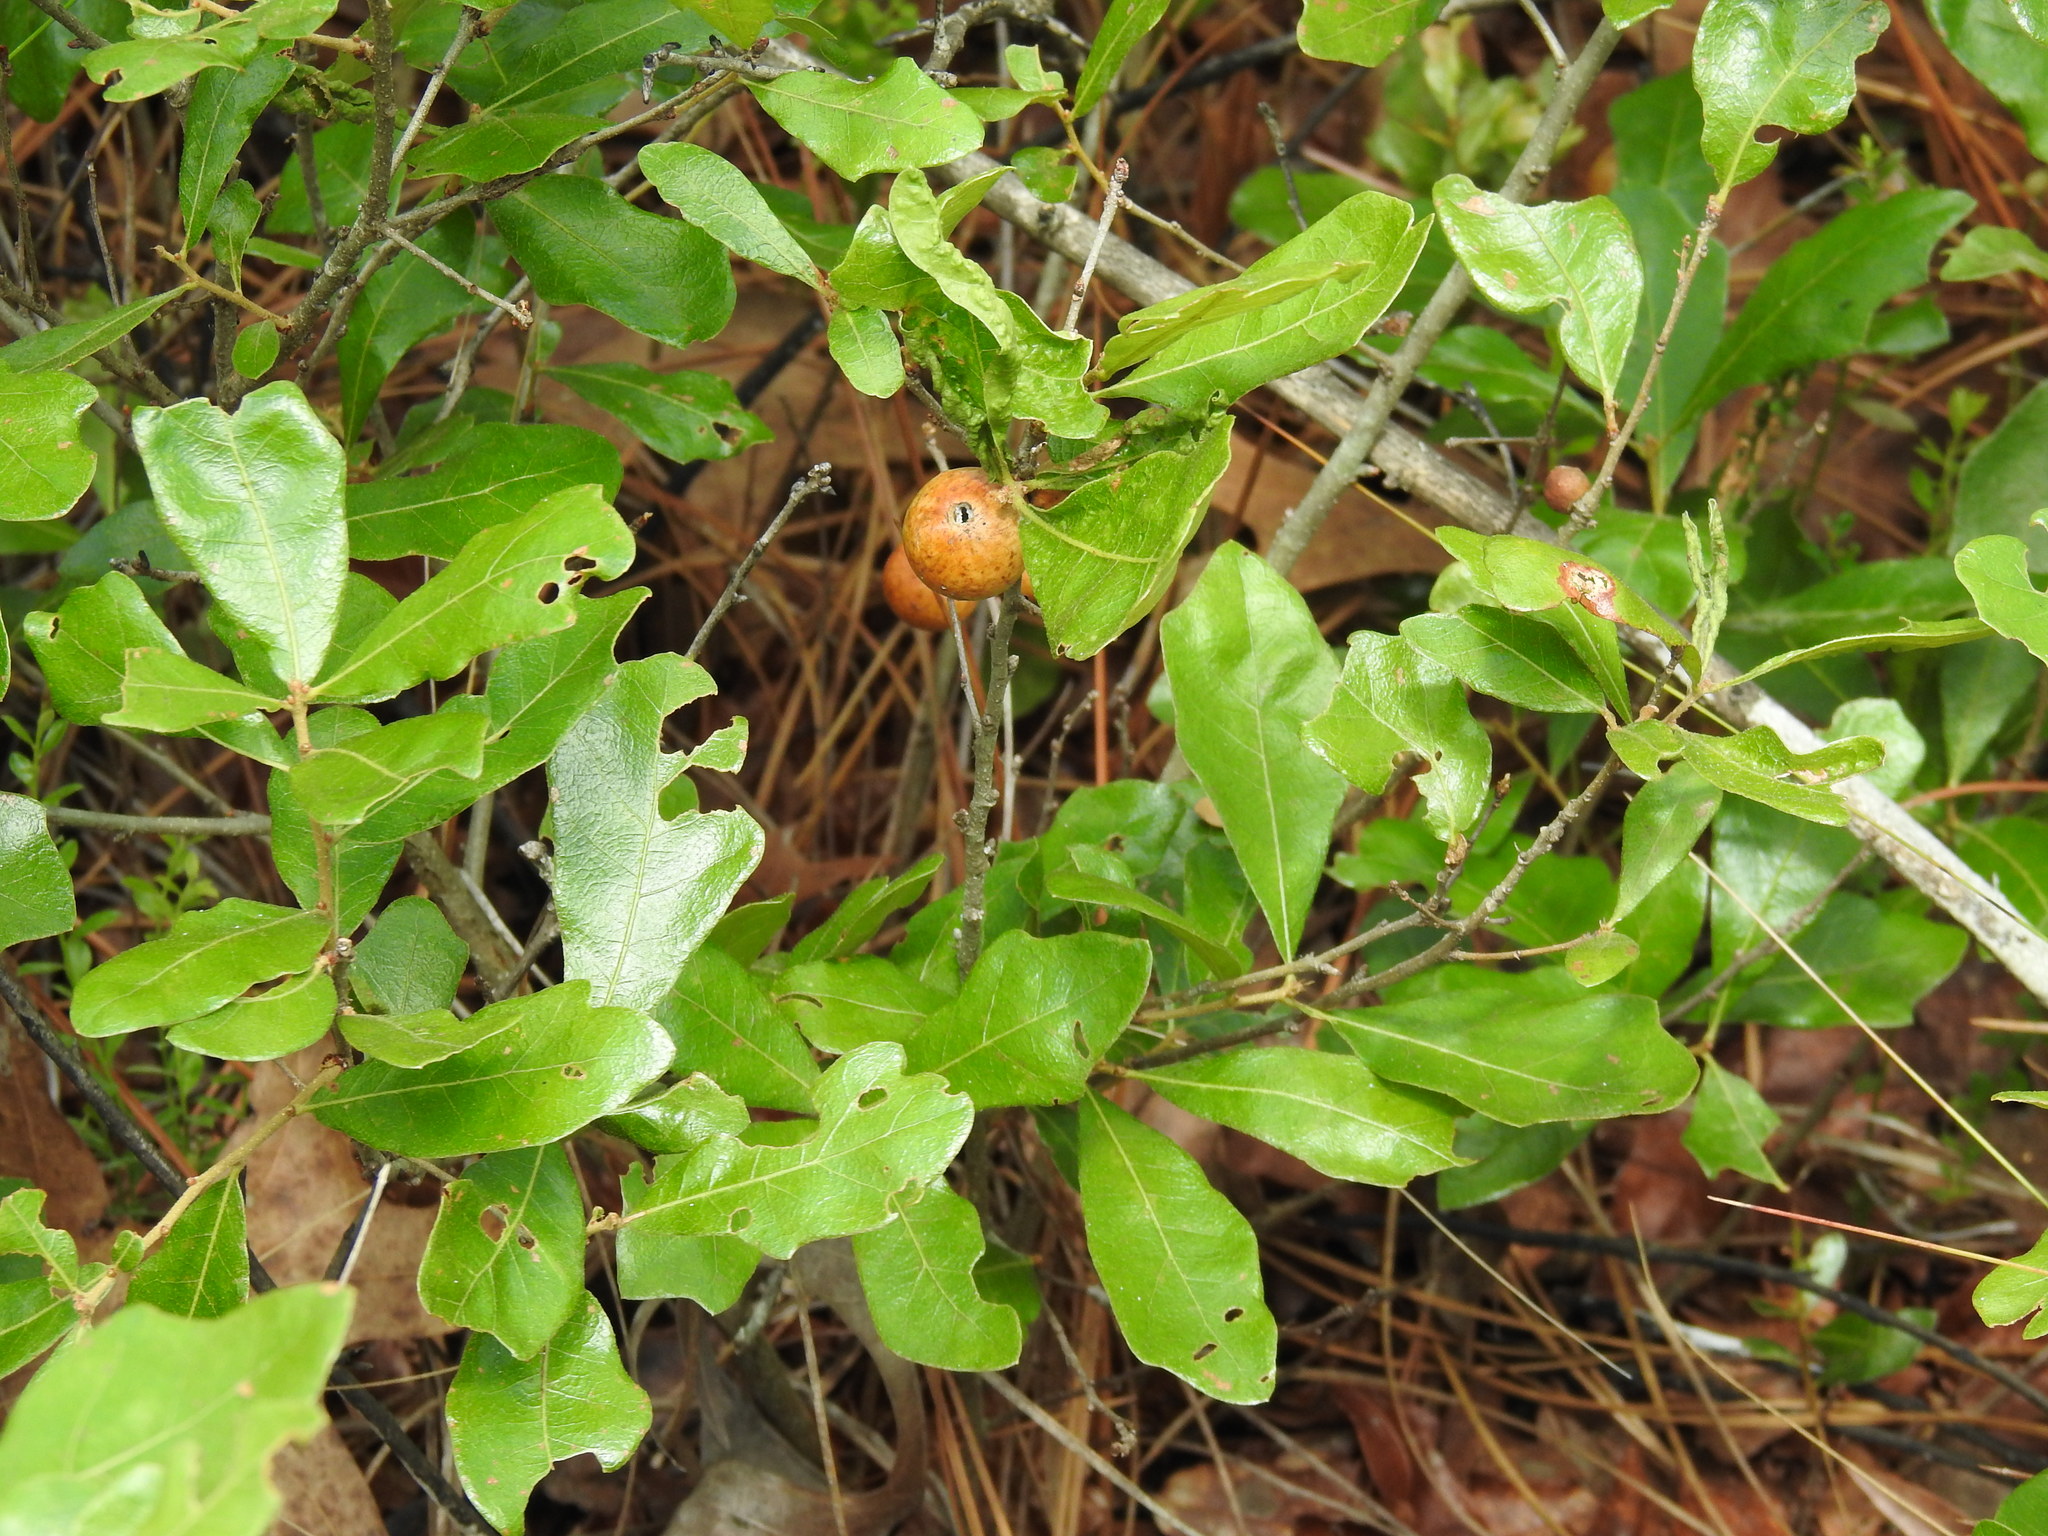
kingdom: Plantae
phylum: Tracheophyta
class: Magnoliopsida
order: Fagales
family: Fagaceae
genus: Quercus
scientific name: Quercus chapmanii
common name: Chapman oak
